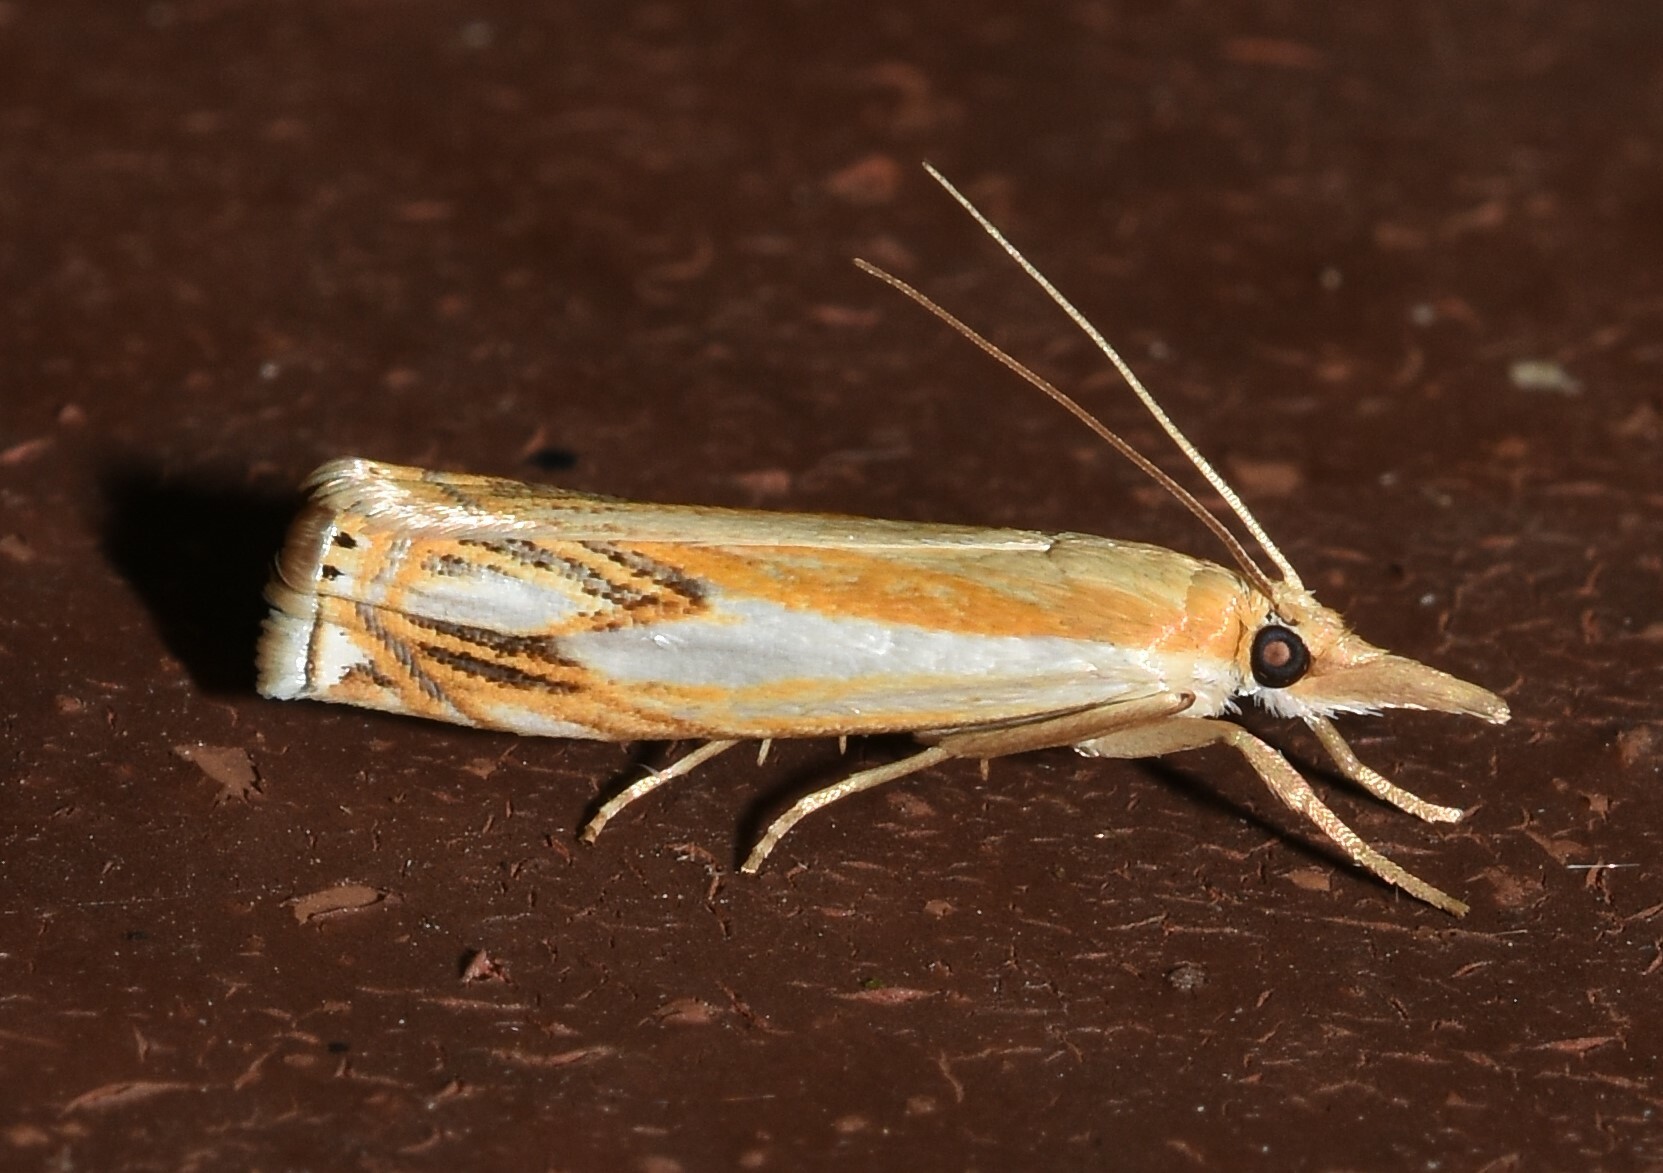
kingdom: Animalia
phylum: Arthropoda
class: Insecta
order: Lepidoptera
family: Crambidae
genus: Crambus
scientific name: Crambus agitatellus
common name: Double-banded grass-veneer
